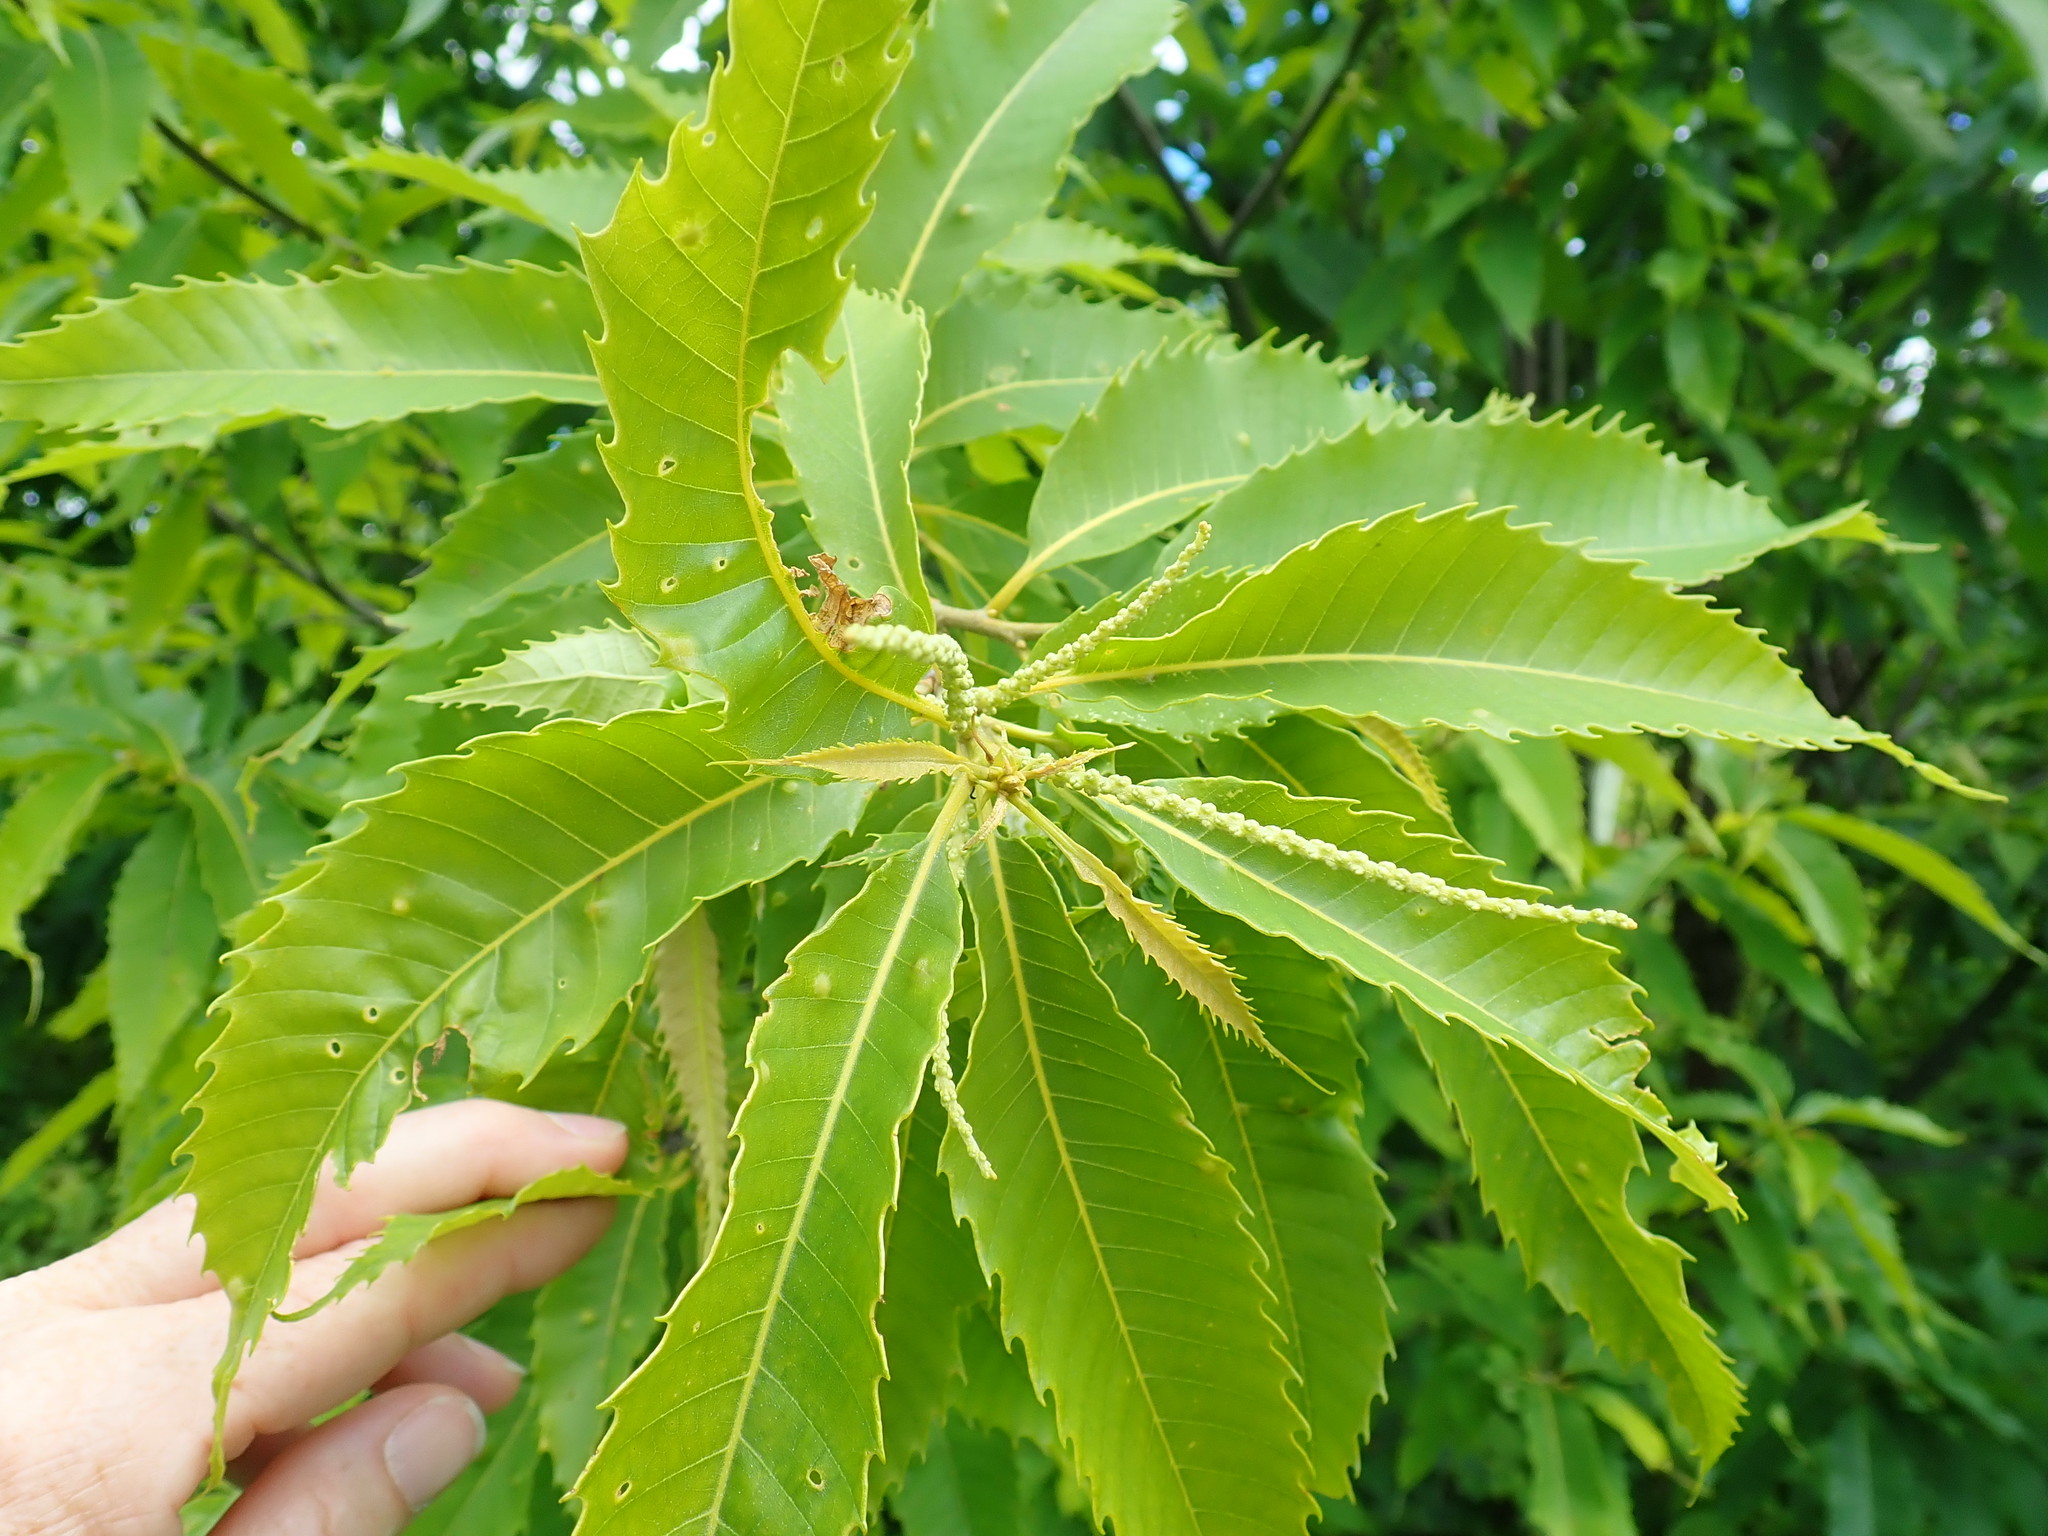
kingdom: Plantae
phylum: Tracheophyta
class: Magnoliopsida
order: Fagales
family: Fagaceae
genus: Castanea
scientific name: Castanea dentata
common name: American chestnut
